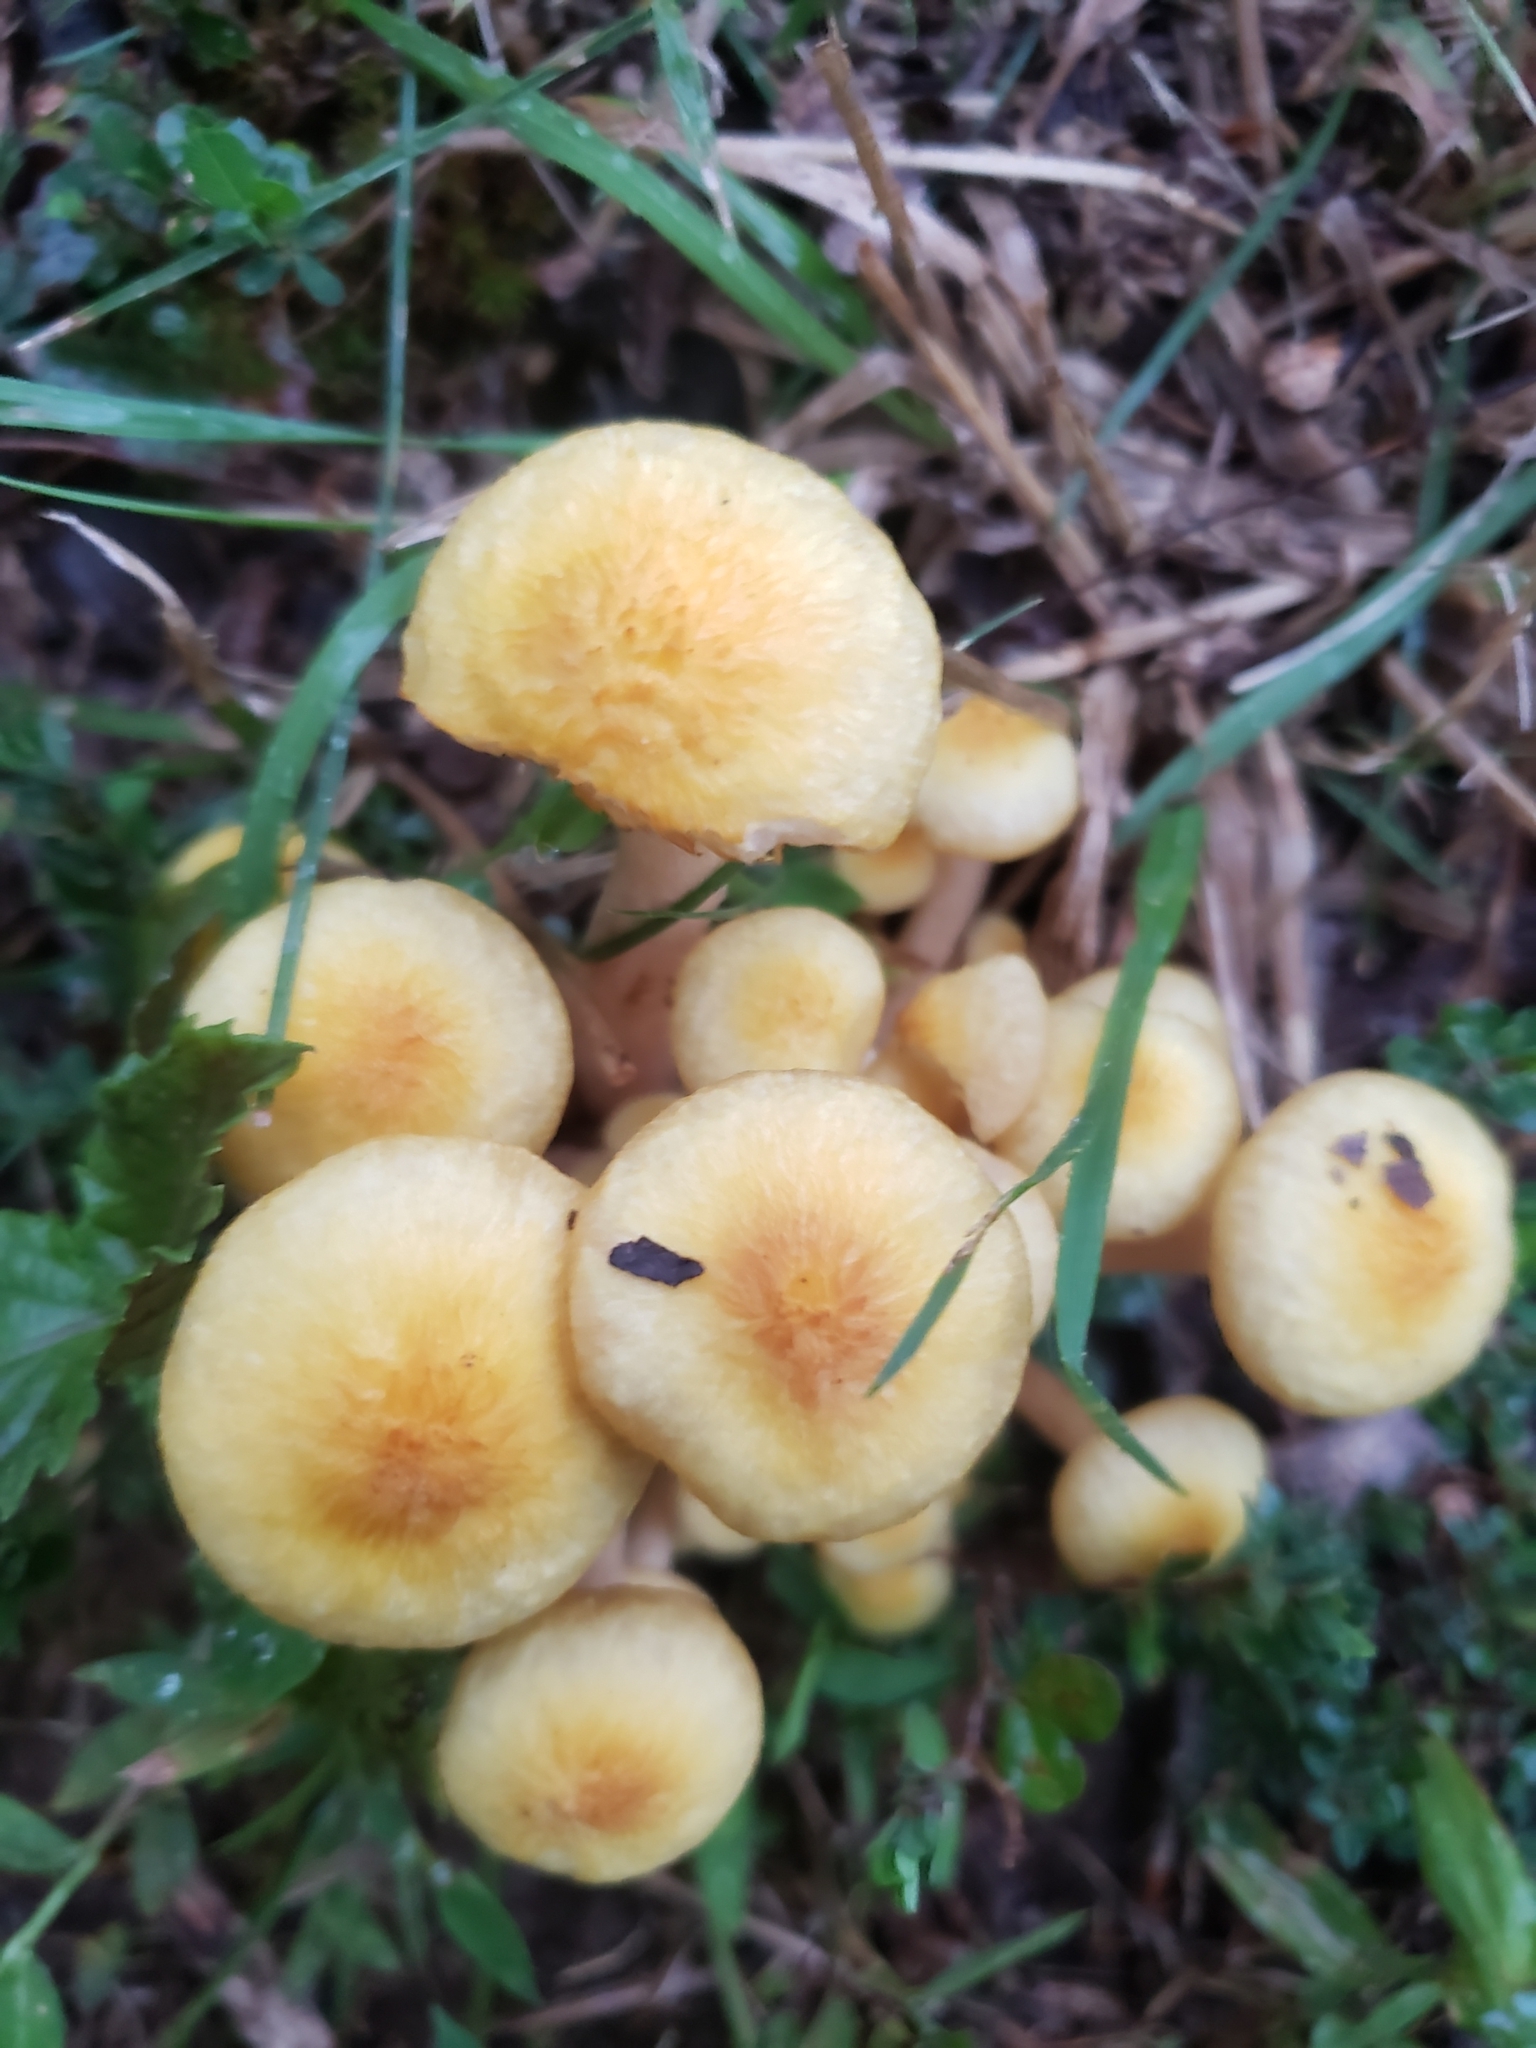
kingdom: Fungi
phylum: Basidiomycota
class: Agaricomycetes
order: Agaricales
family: Physalacriaceae
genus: Desarmillaria
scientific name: Desarmillaria caespitosa
